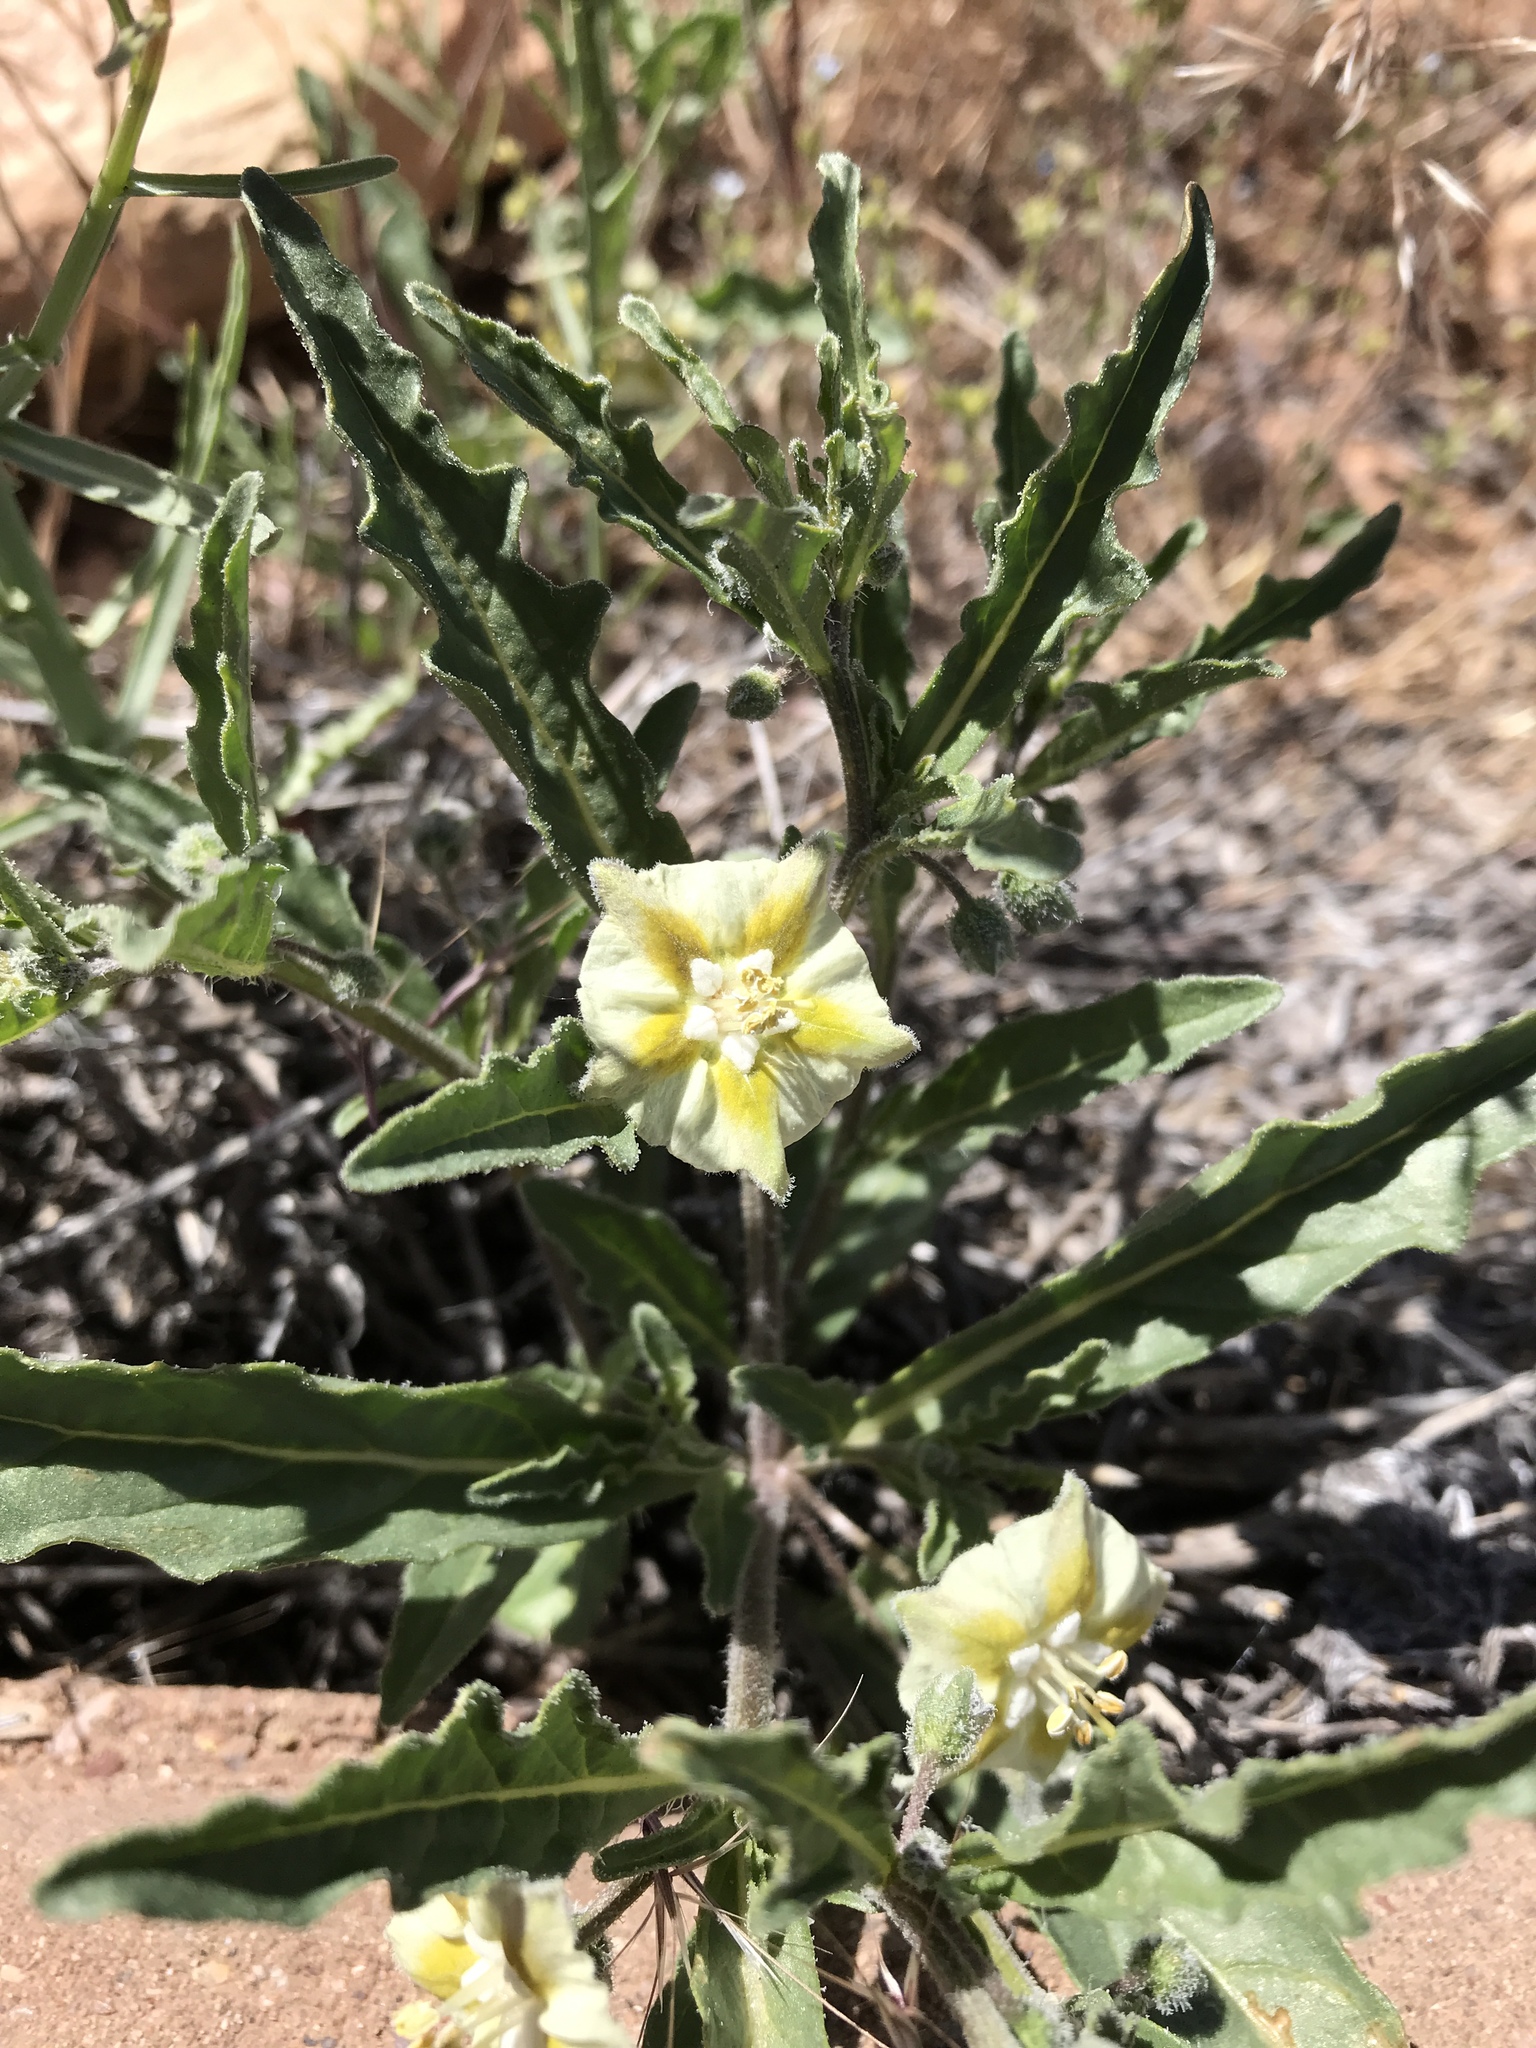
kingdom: Plantae
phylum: Tracheophyta
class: Magnoliopsida
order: Solanales
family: Solanaceae
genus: Chamaesaracha
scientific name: Chamaesaracha coronopus
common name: Smooth chamaesaracha
